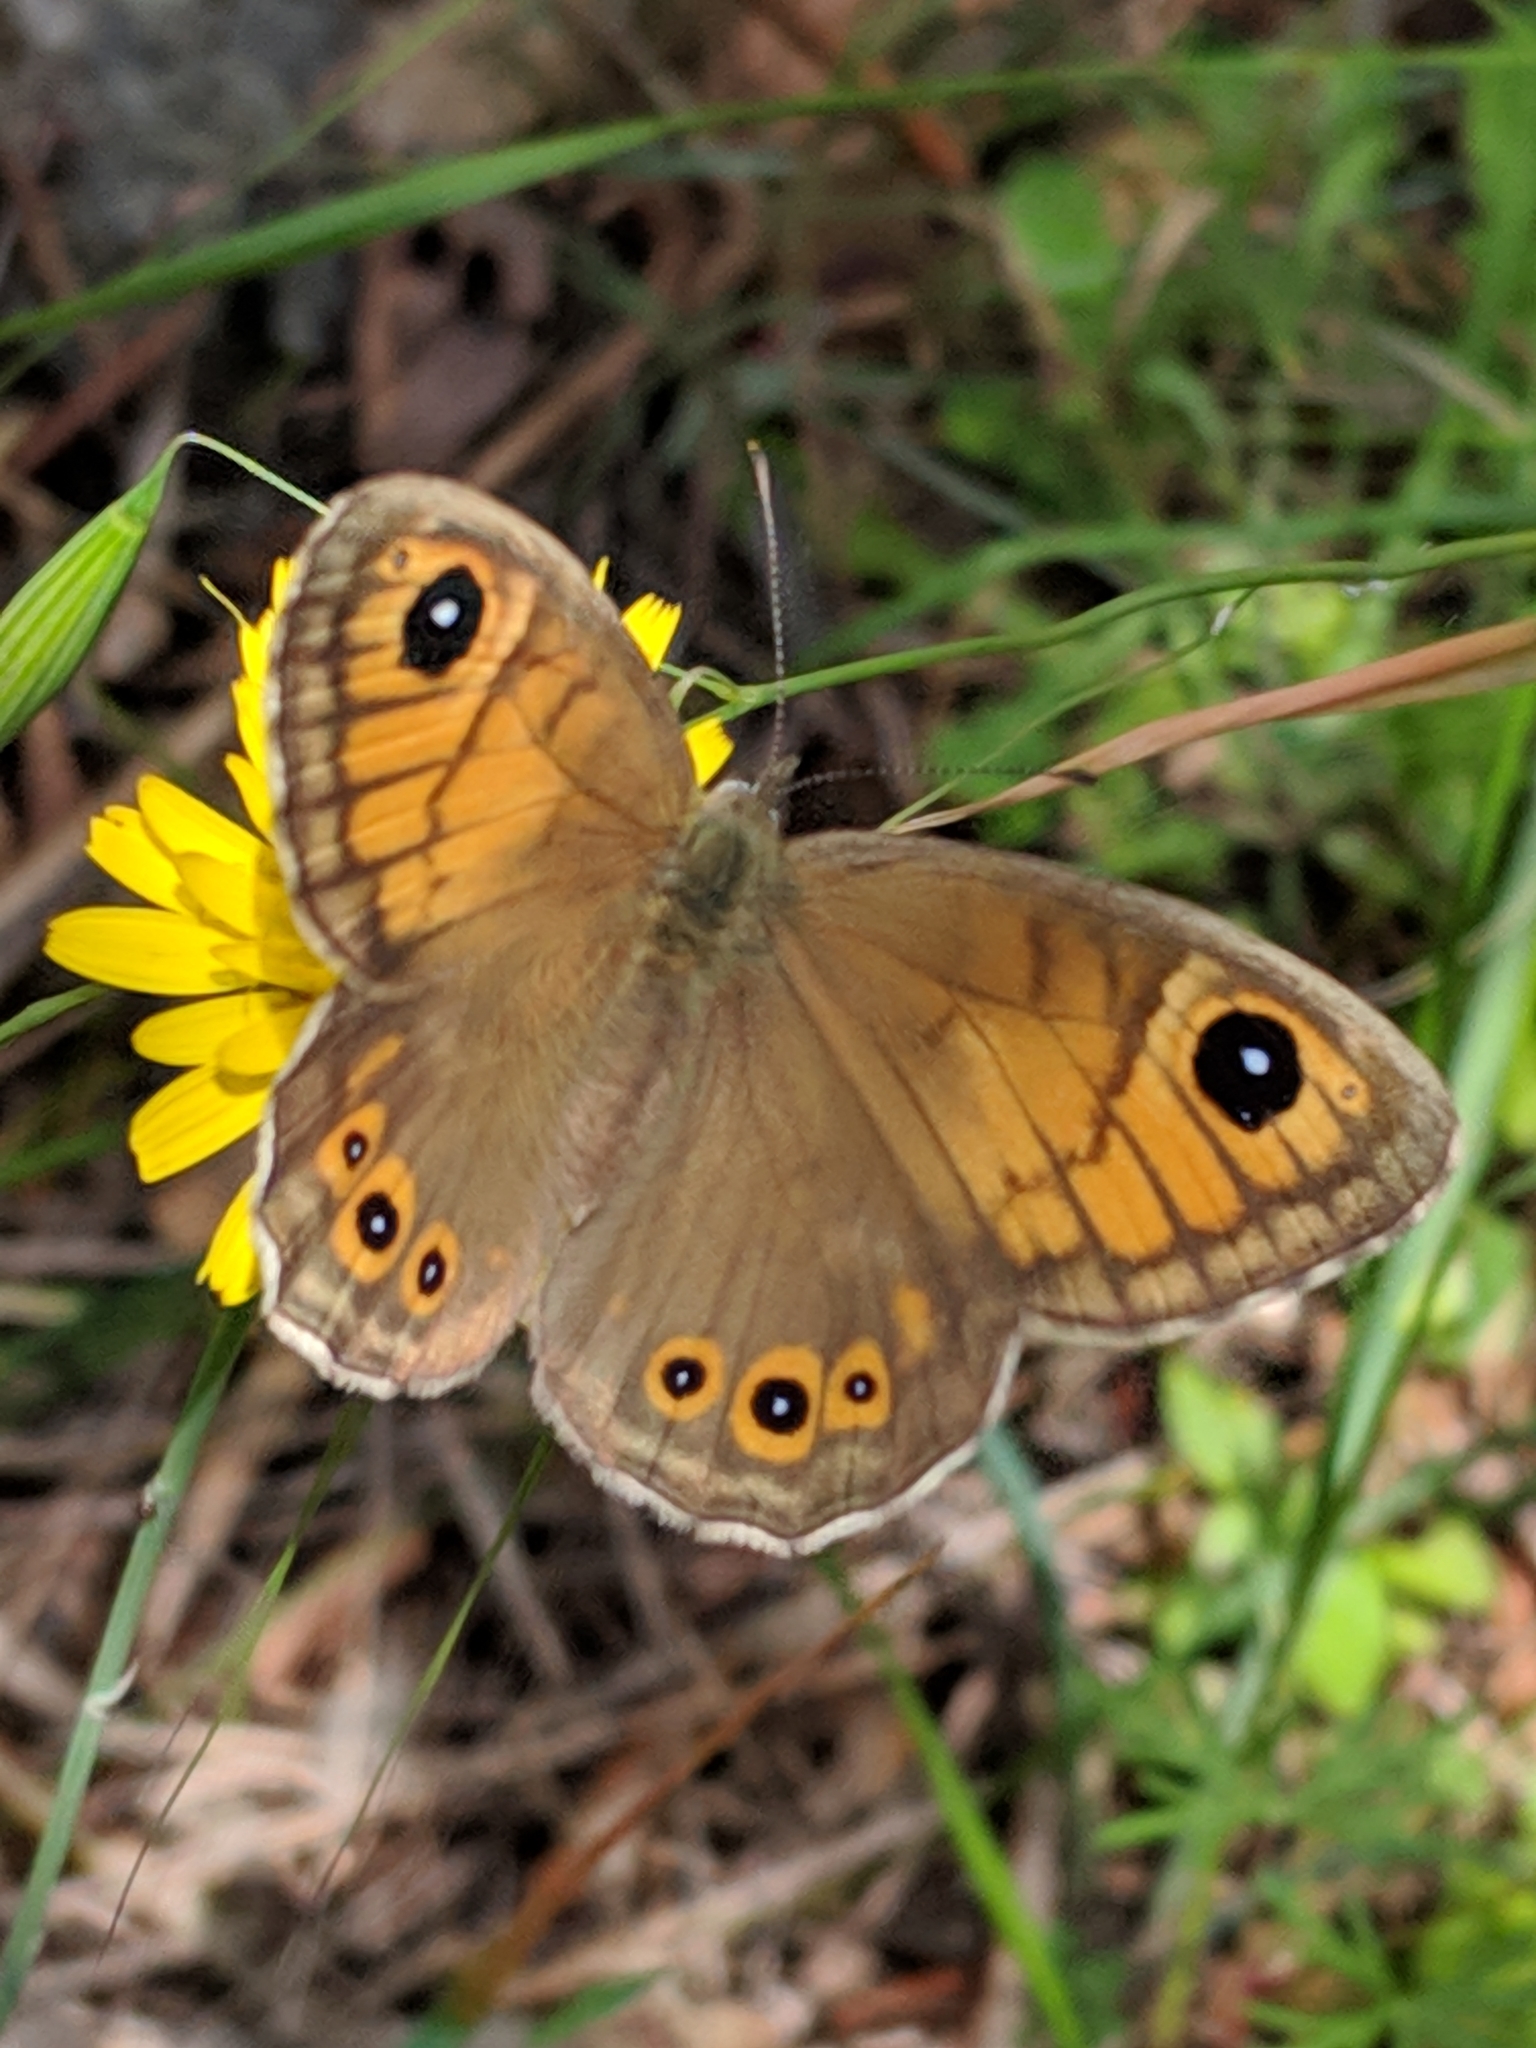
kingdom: Animalia
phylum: Arthropoda
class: Insecta
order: Lepidoptera
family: Nymphalidae
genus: Pararge
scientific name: Pararge Lasiommata maera
